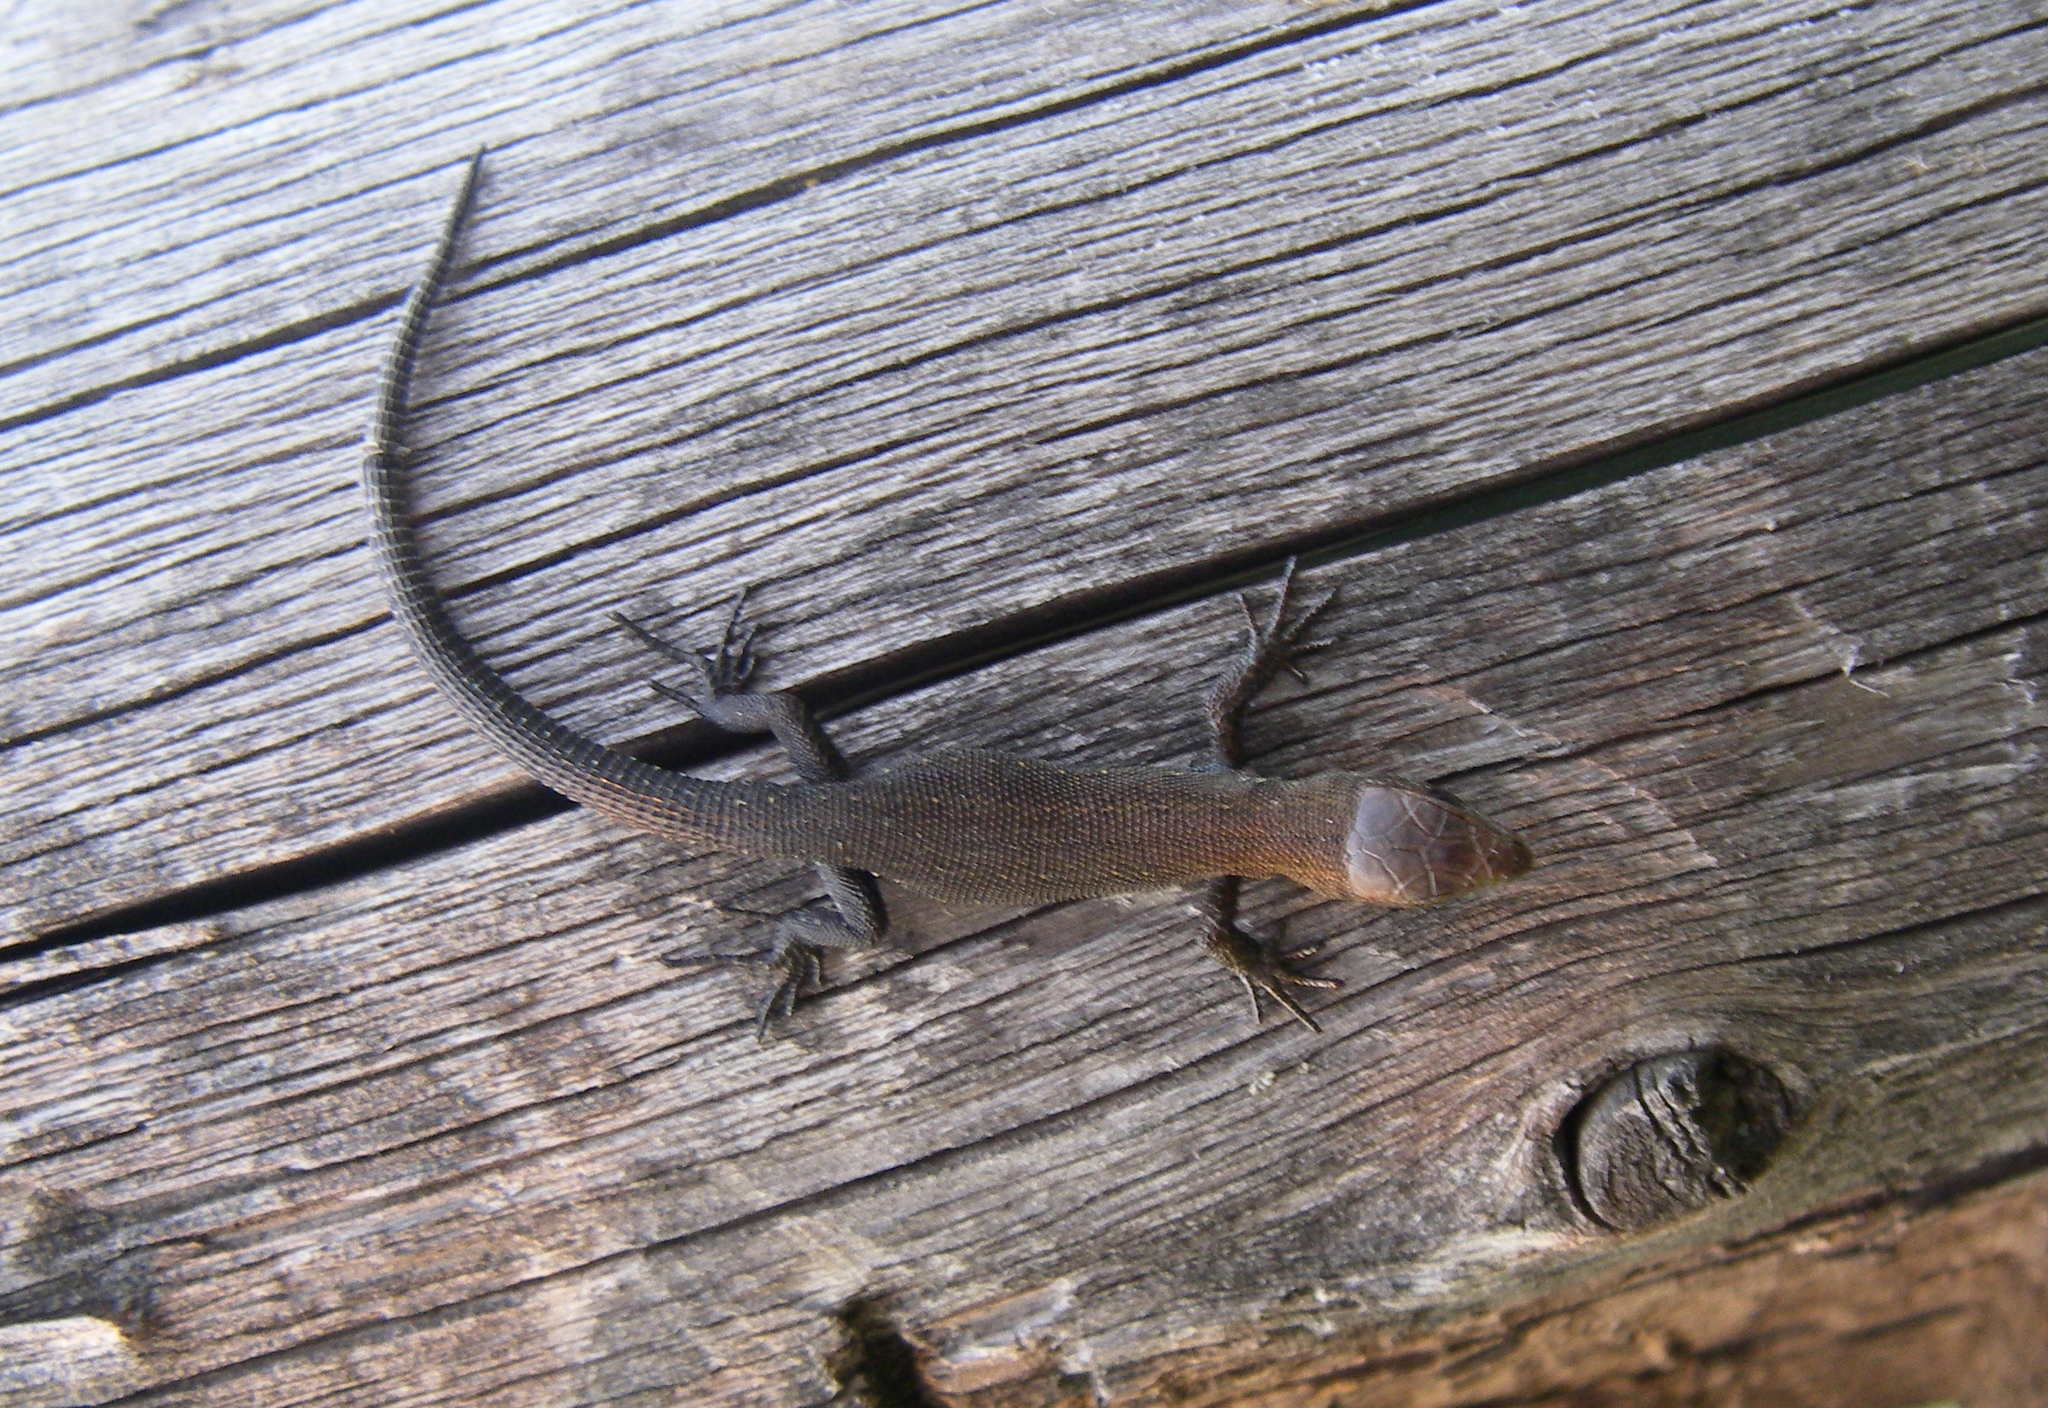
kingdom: Animalia
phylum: Chordata
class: Squamata
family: Lacertidae
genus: Zootoca
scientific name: Zootoca vivipara
